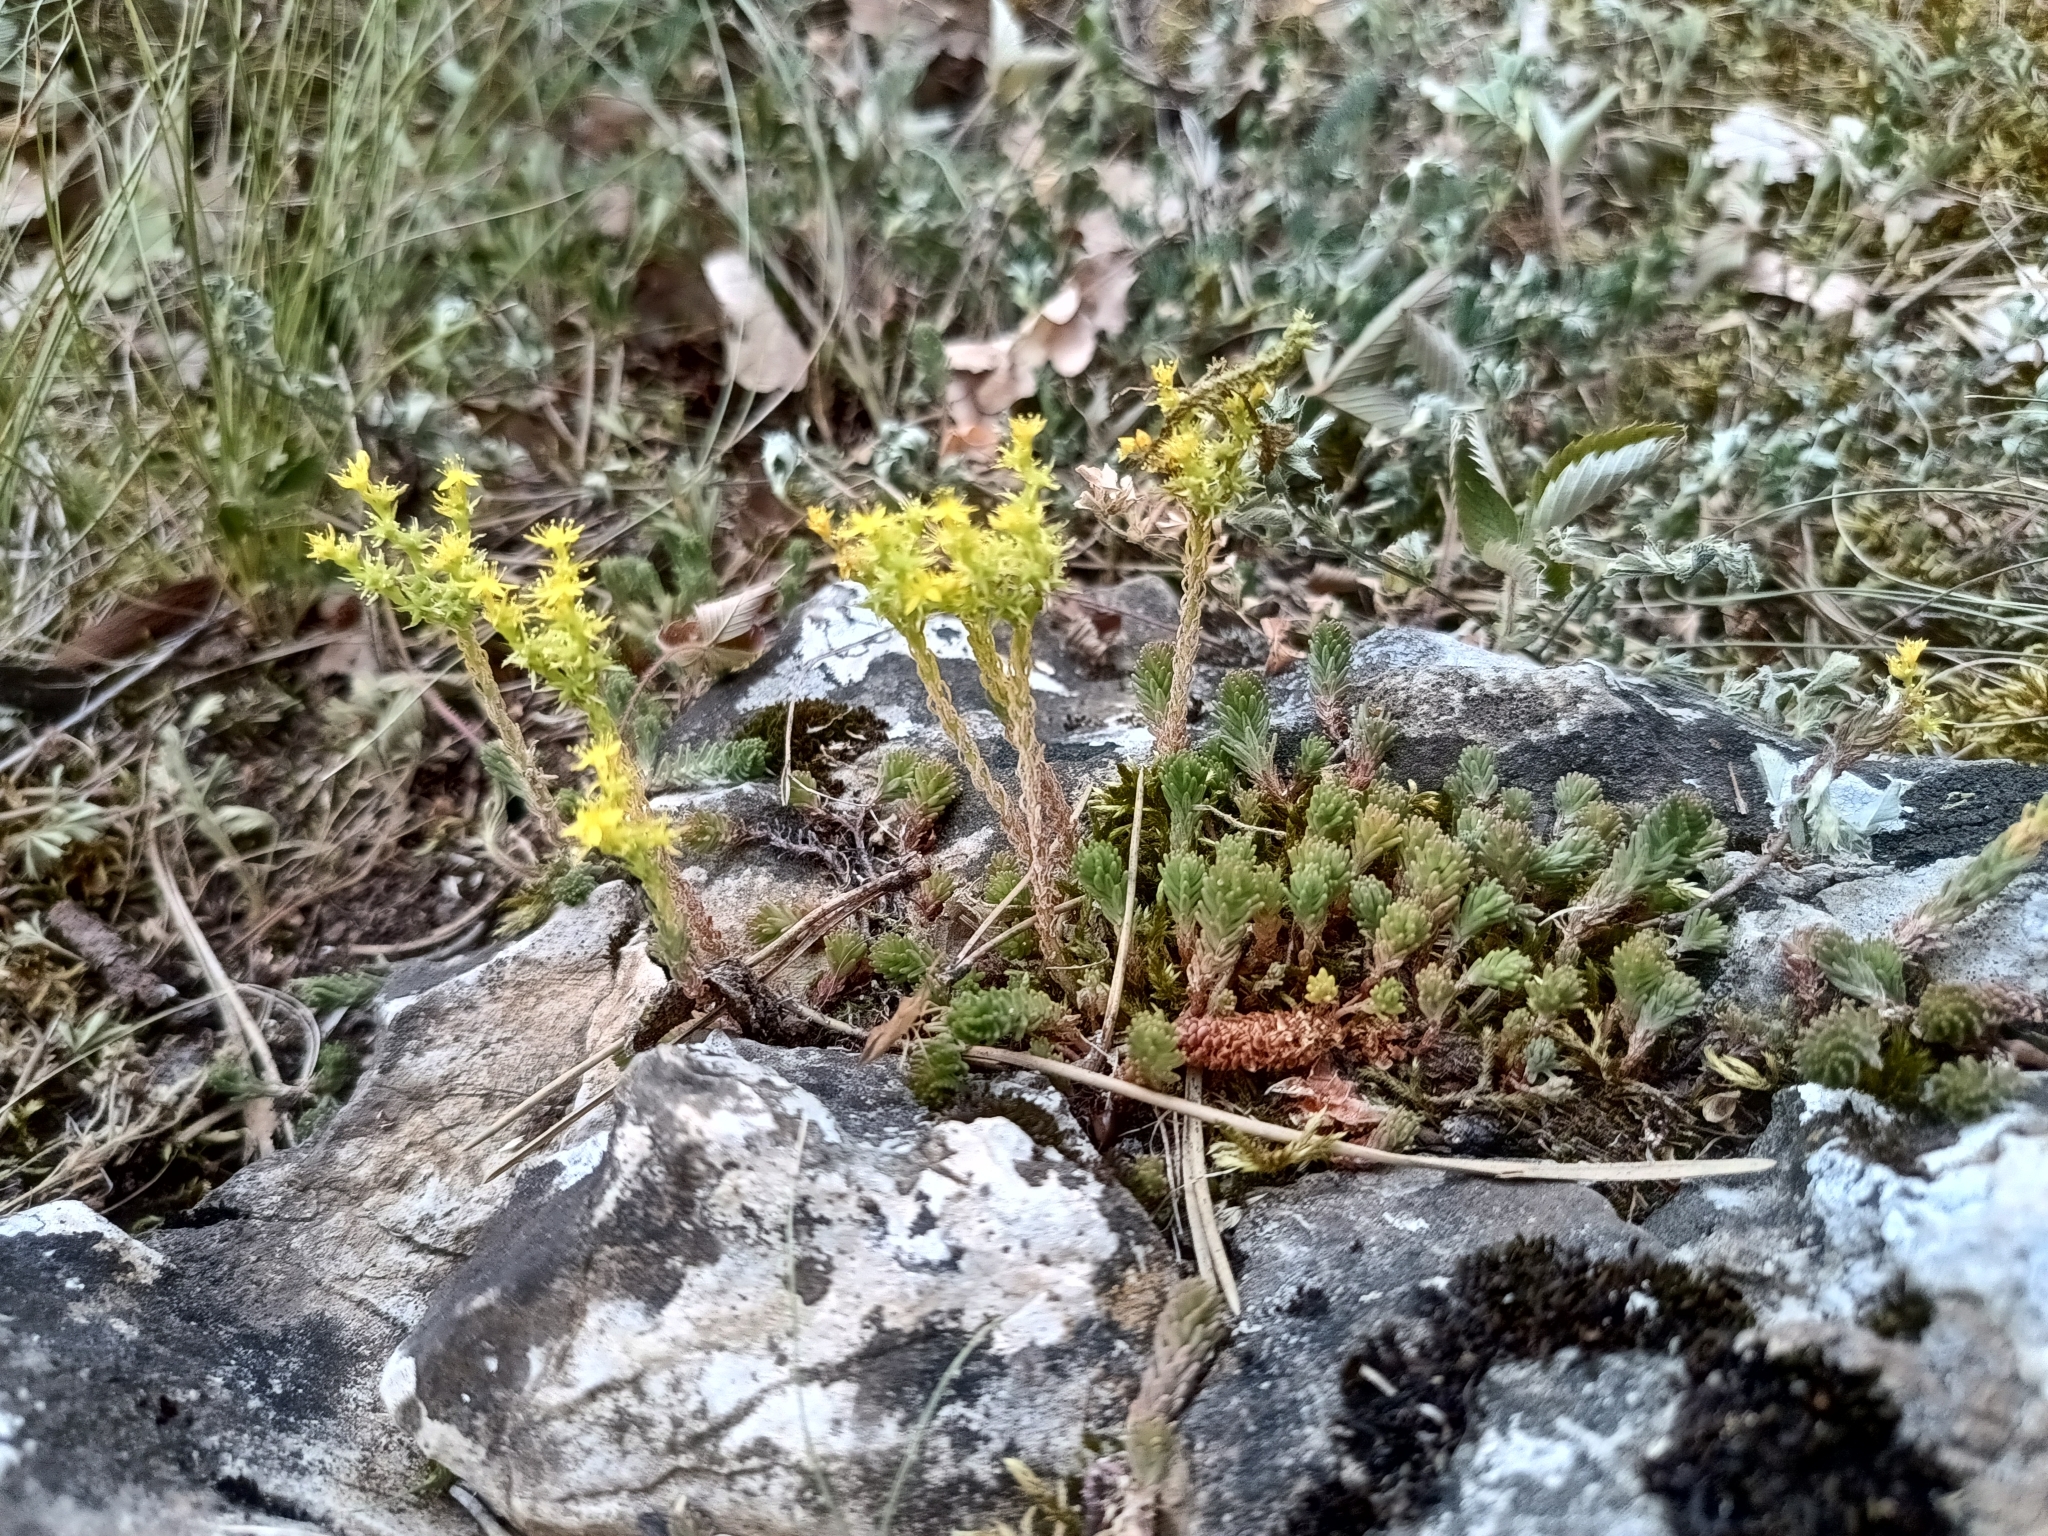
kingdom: Plantae
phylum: Tracheophyta
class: Magnoliopsida
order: Saxifragales
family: Crassulaceae
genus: Sedum
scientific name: Sedum sexangulare
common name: Tasteless stonecrop
